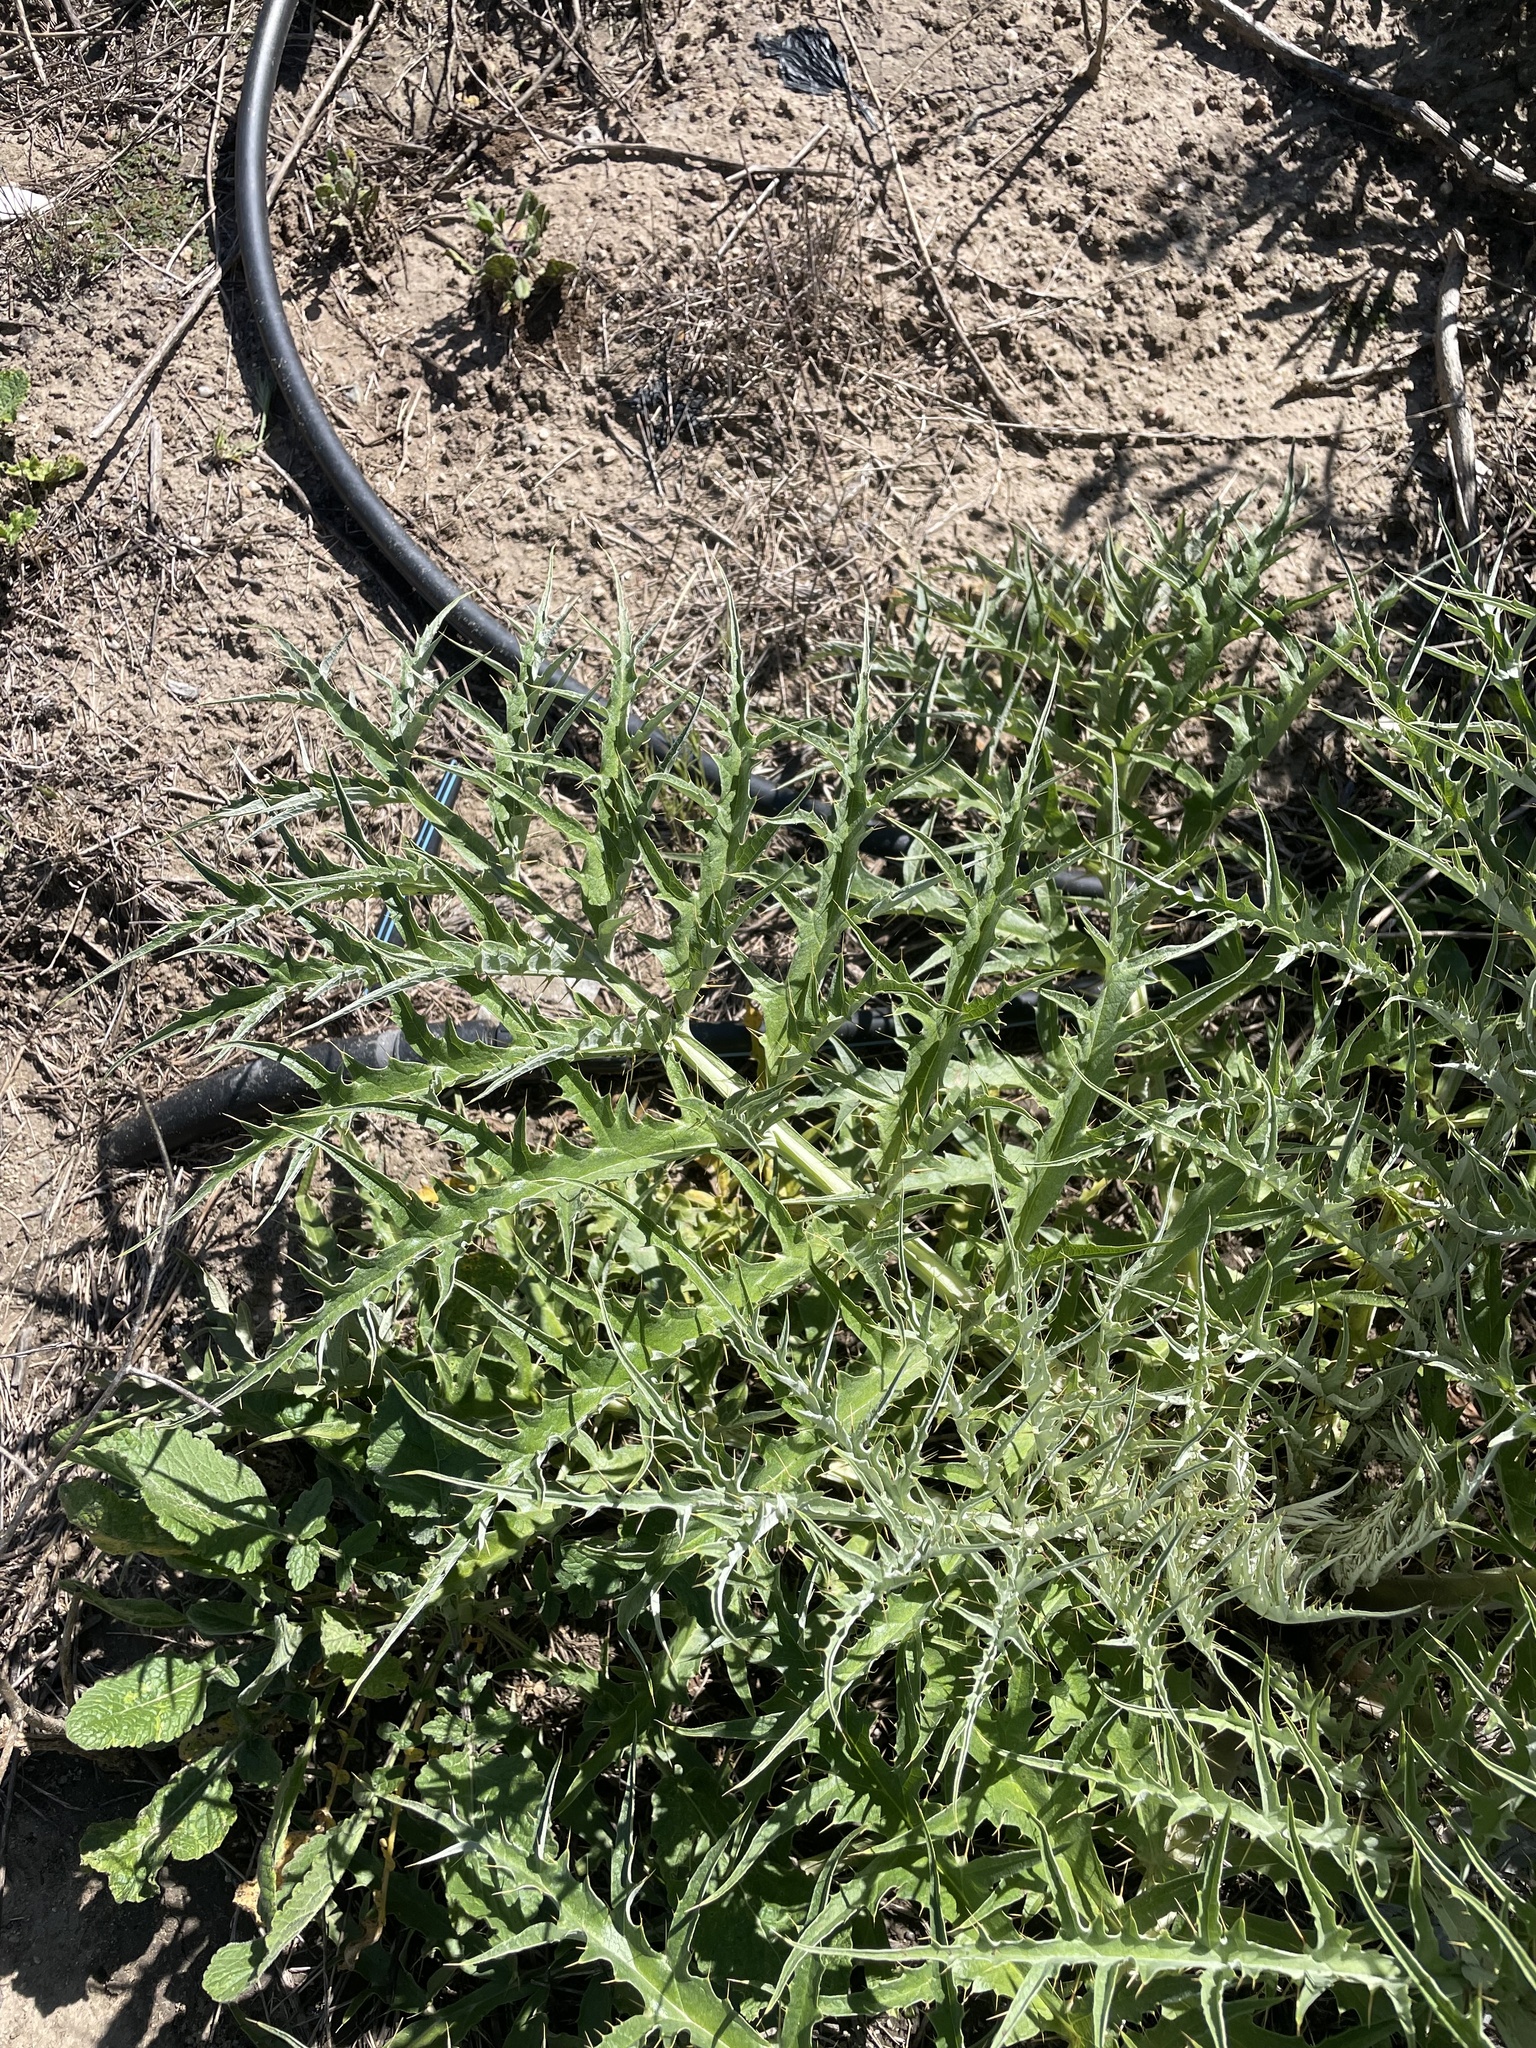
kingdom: Plantae
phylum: Tracheophyta
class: Magnoliopsida
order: Asterales
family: Asteraceae
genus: Cynara
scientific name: Cynara cardunculus
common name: Globe artichoke
